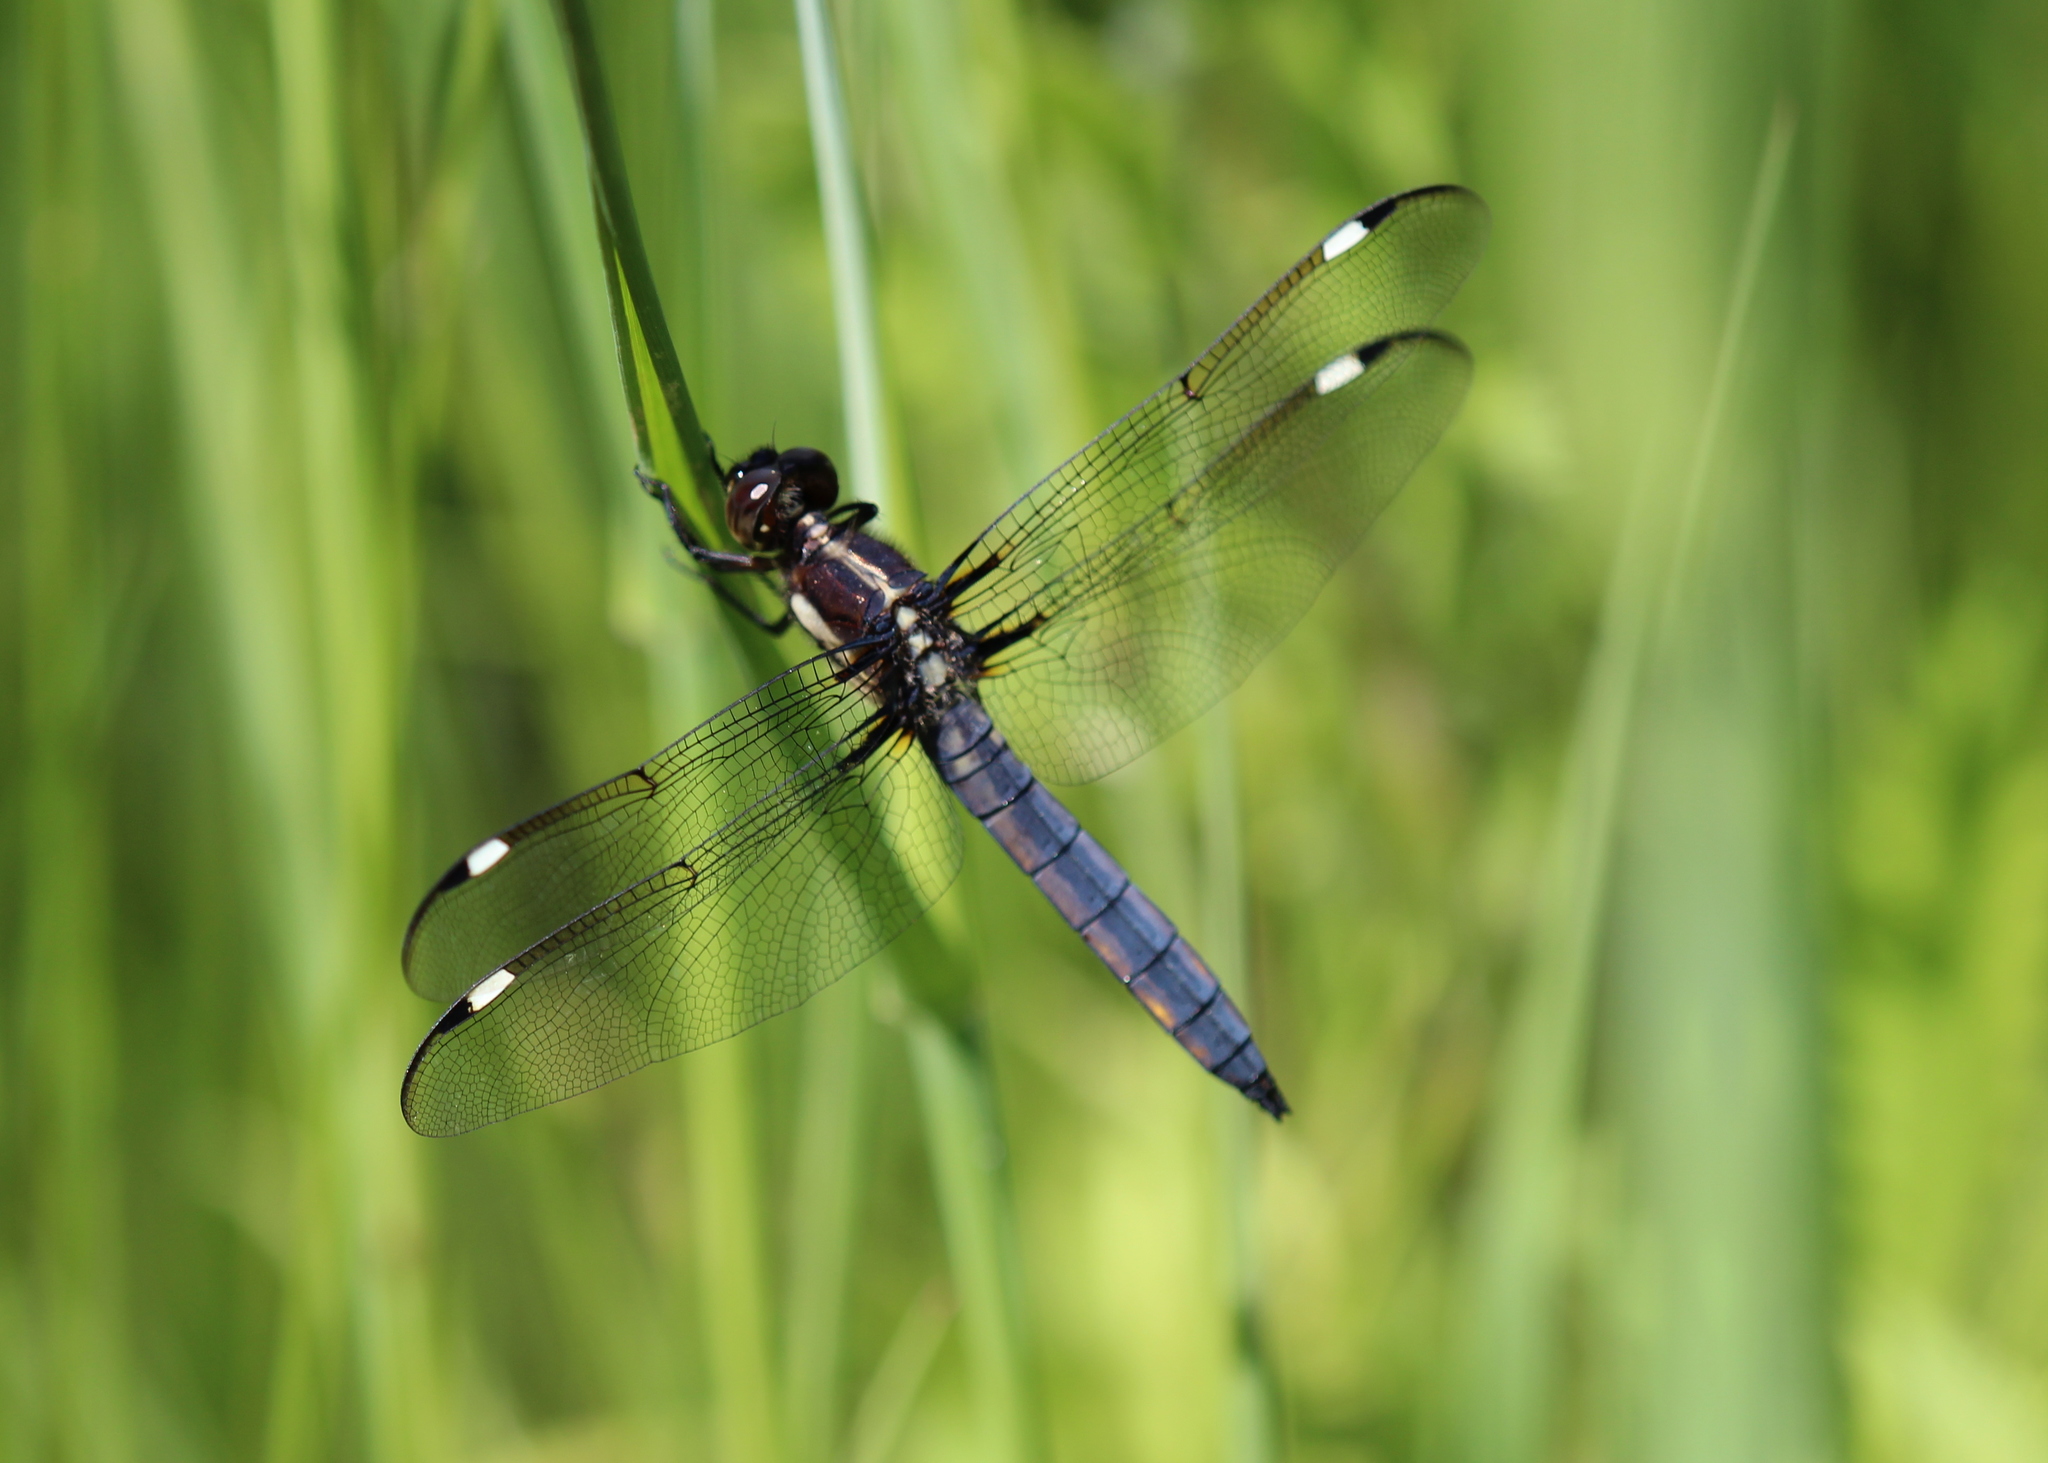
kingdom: Animalia
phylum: Arthropoda
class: Insecta
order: Odonata
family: Libellulidae
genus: Libellula
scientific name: Libellula cyanea
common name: Spangled skimmer
